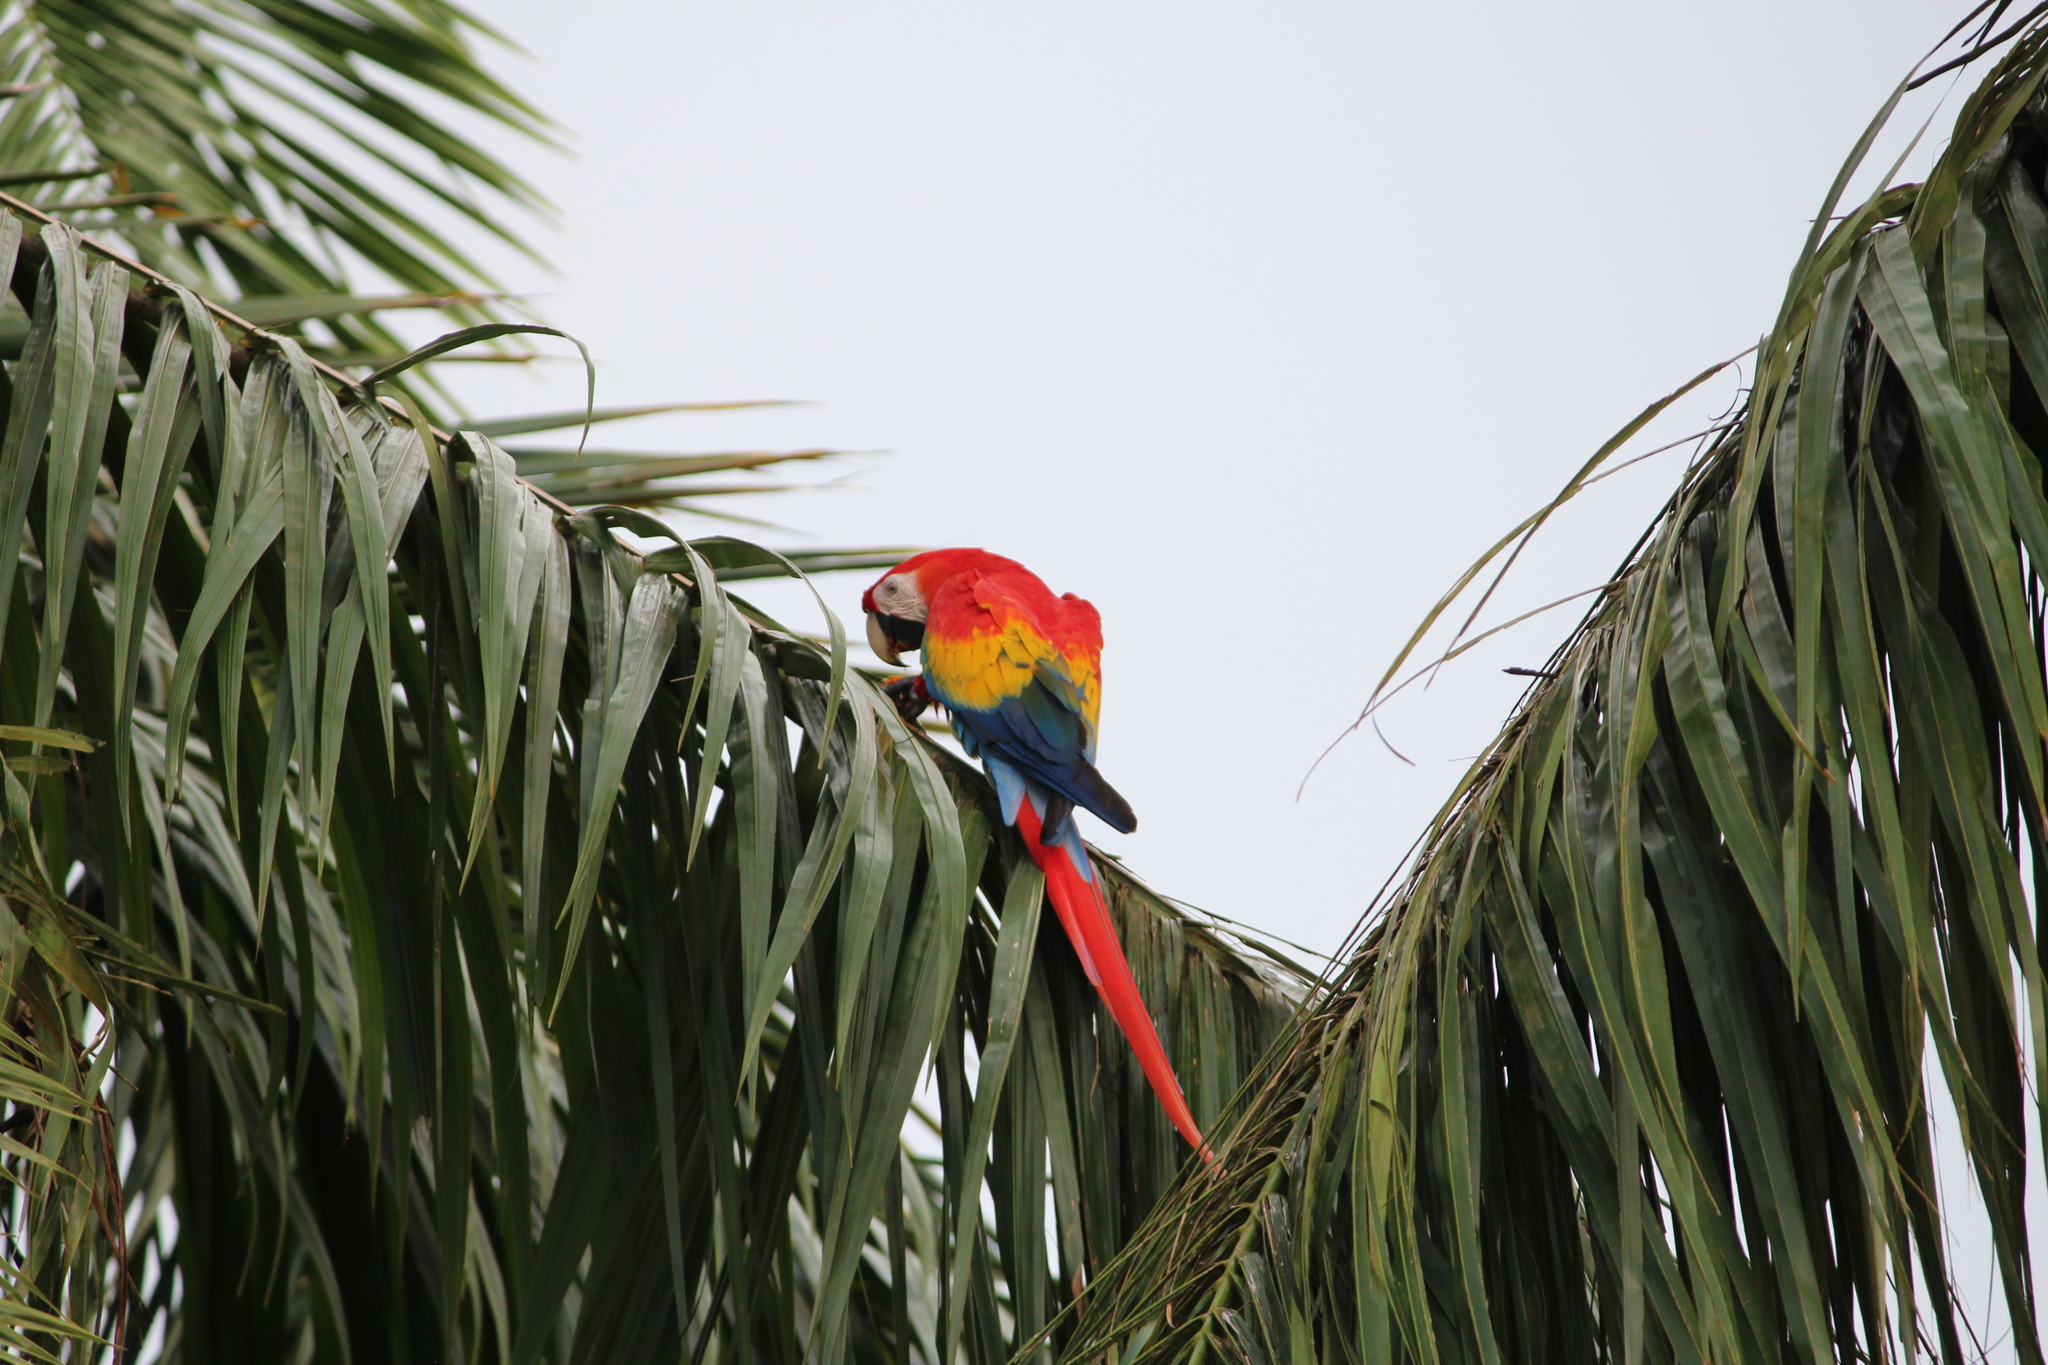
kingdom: Animalia
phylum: Chordata
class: Aves
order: Psittaciformes
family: Psittacidae
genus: Ara
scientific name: Ara macao
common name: Scarlet macaw
